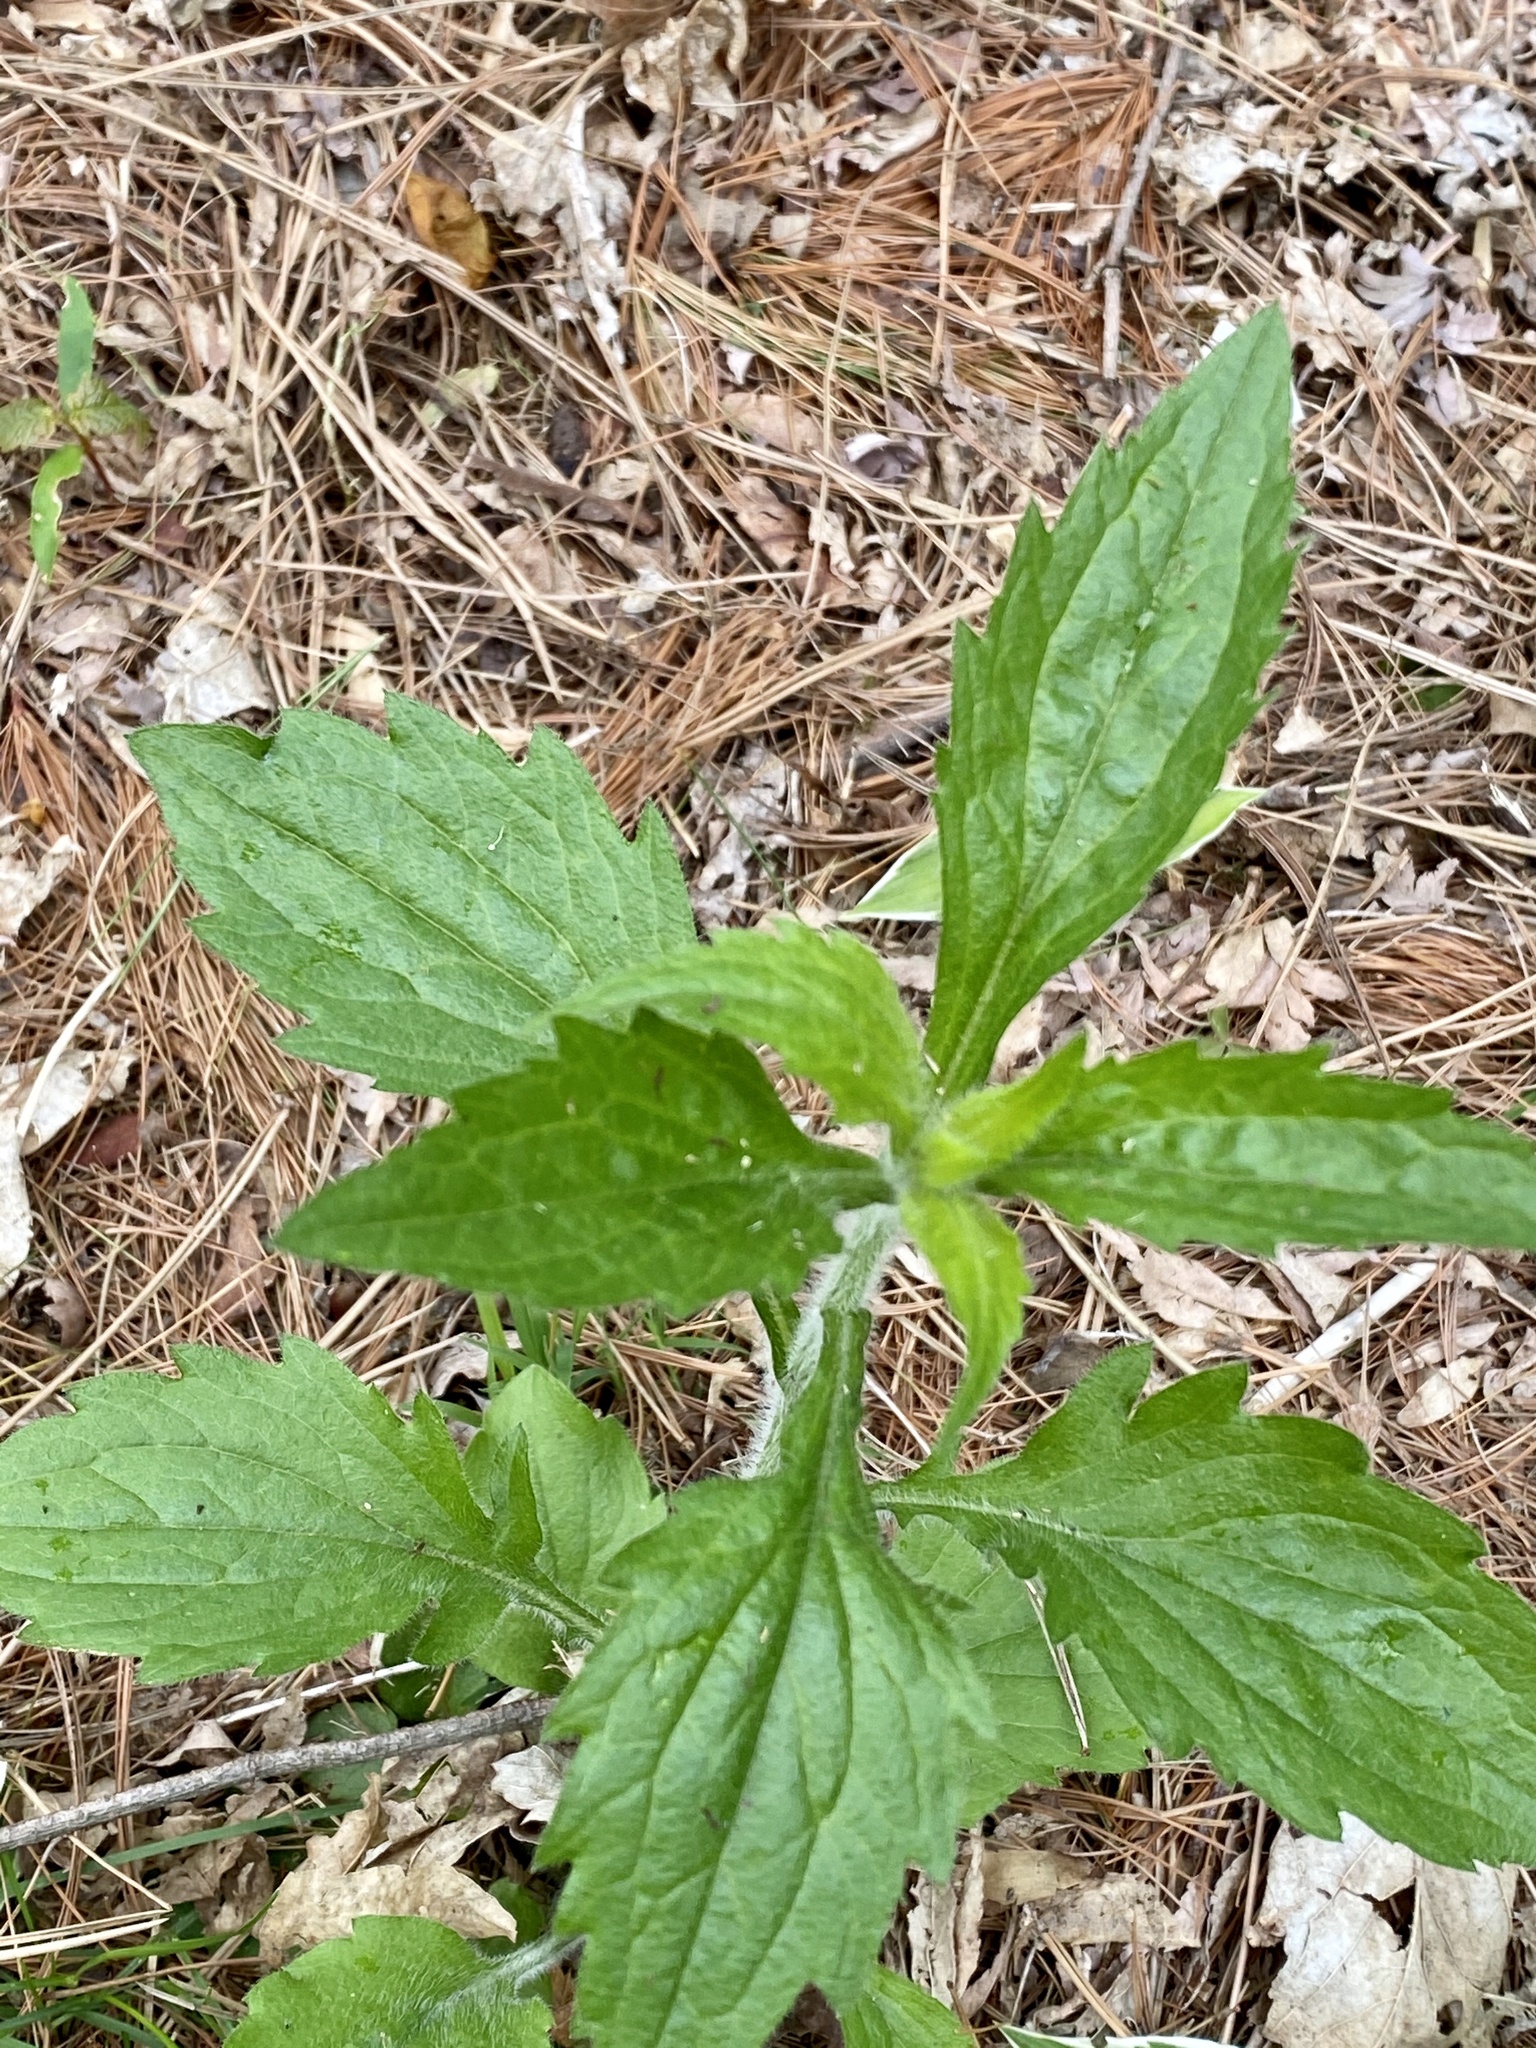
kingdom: Plantae
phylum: Tracheophyta
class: Magnoliopsida
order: Asterales
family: Asteraceae
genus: Erigeron
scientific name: Erigeron annuus
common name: Tall fleabane
